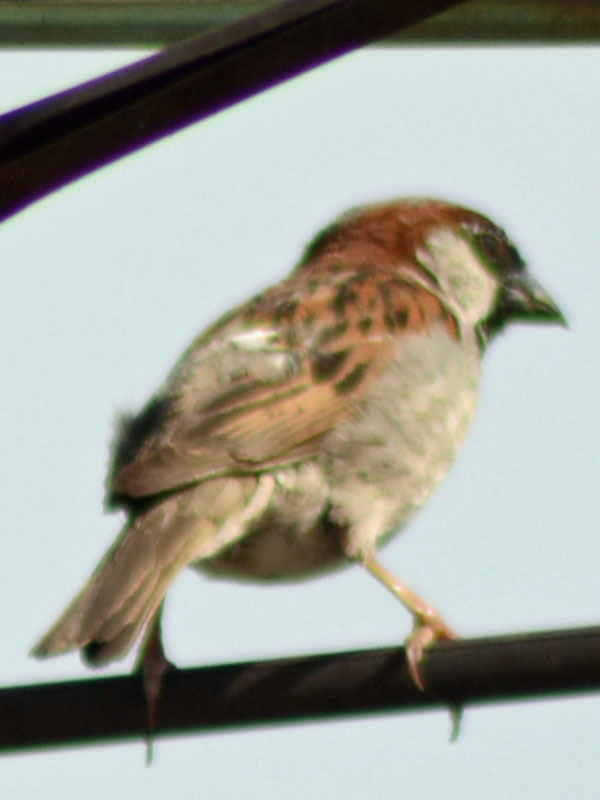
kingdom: Animalia
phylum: Chordata
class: Aves
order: Passeriformes
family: Passeridae
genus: Passer
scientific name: Passer domesticus
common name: House sparrow
